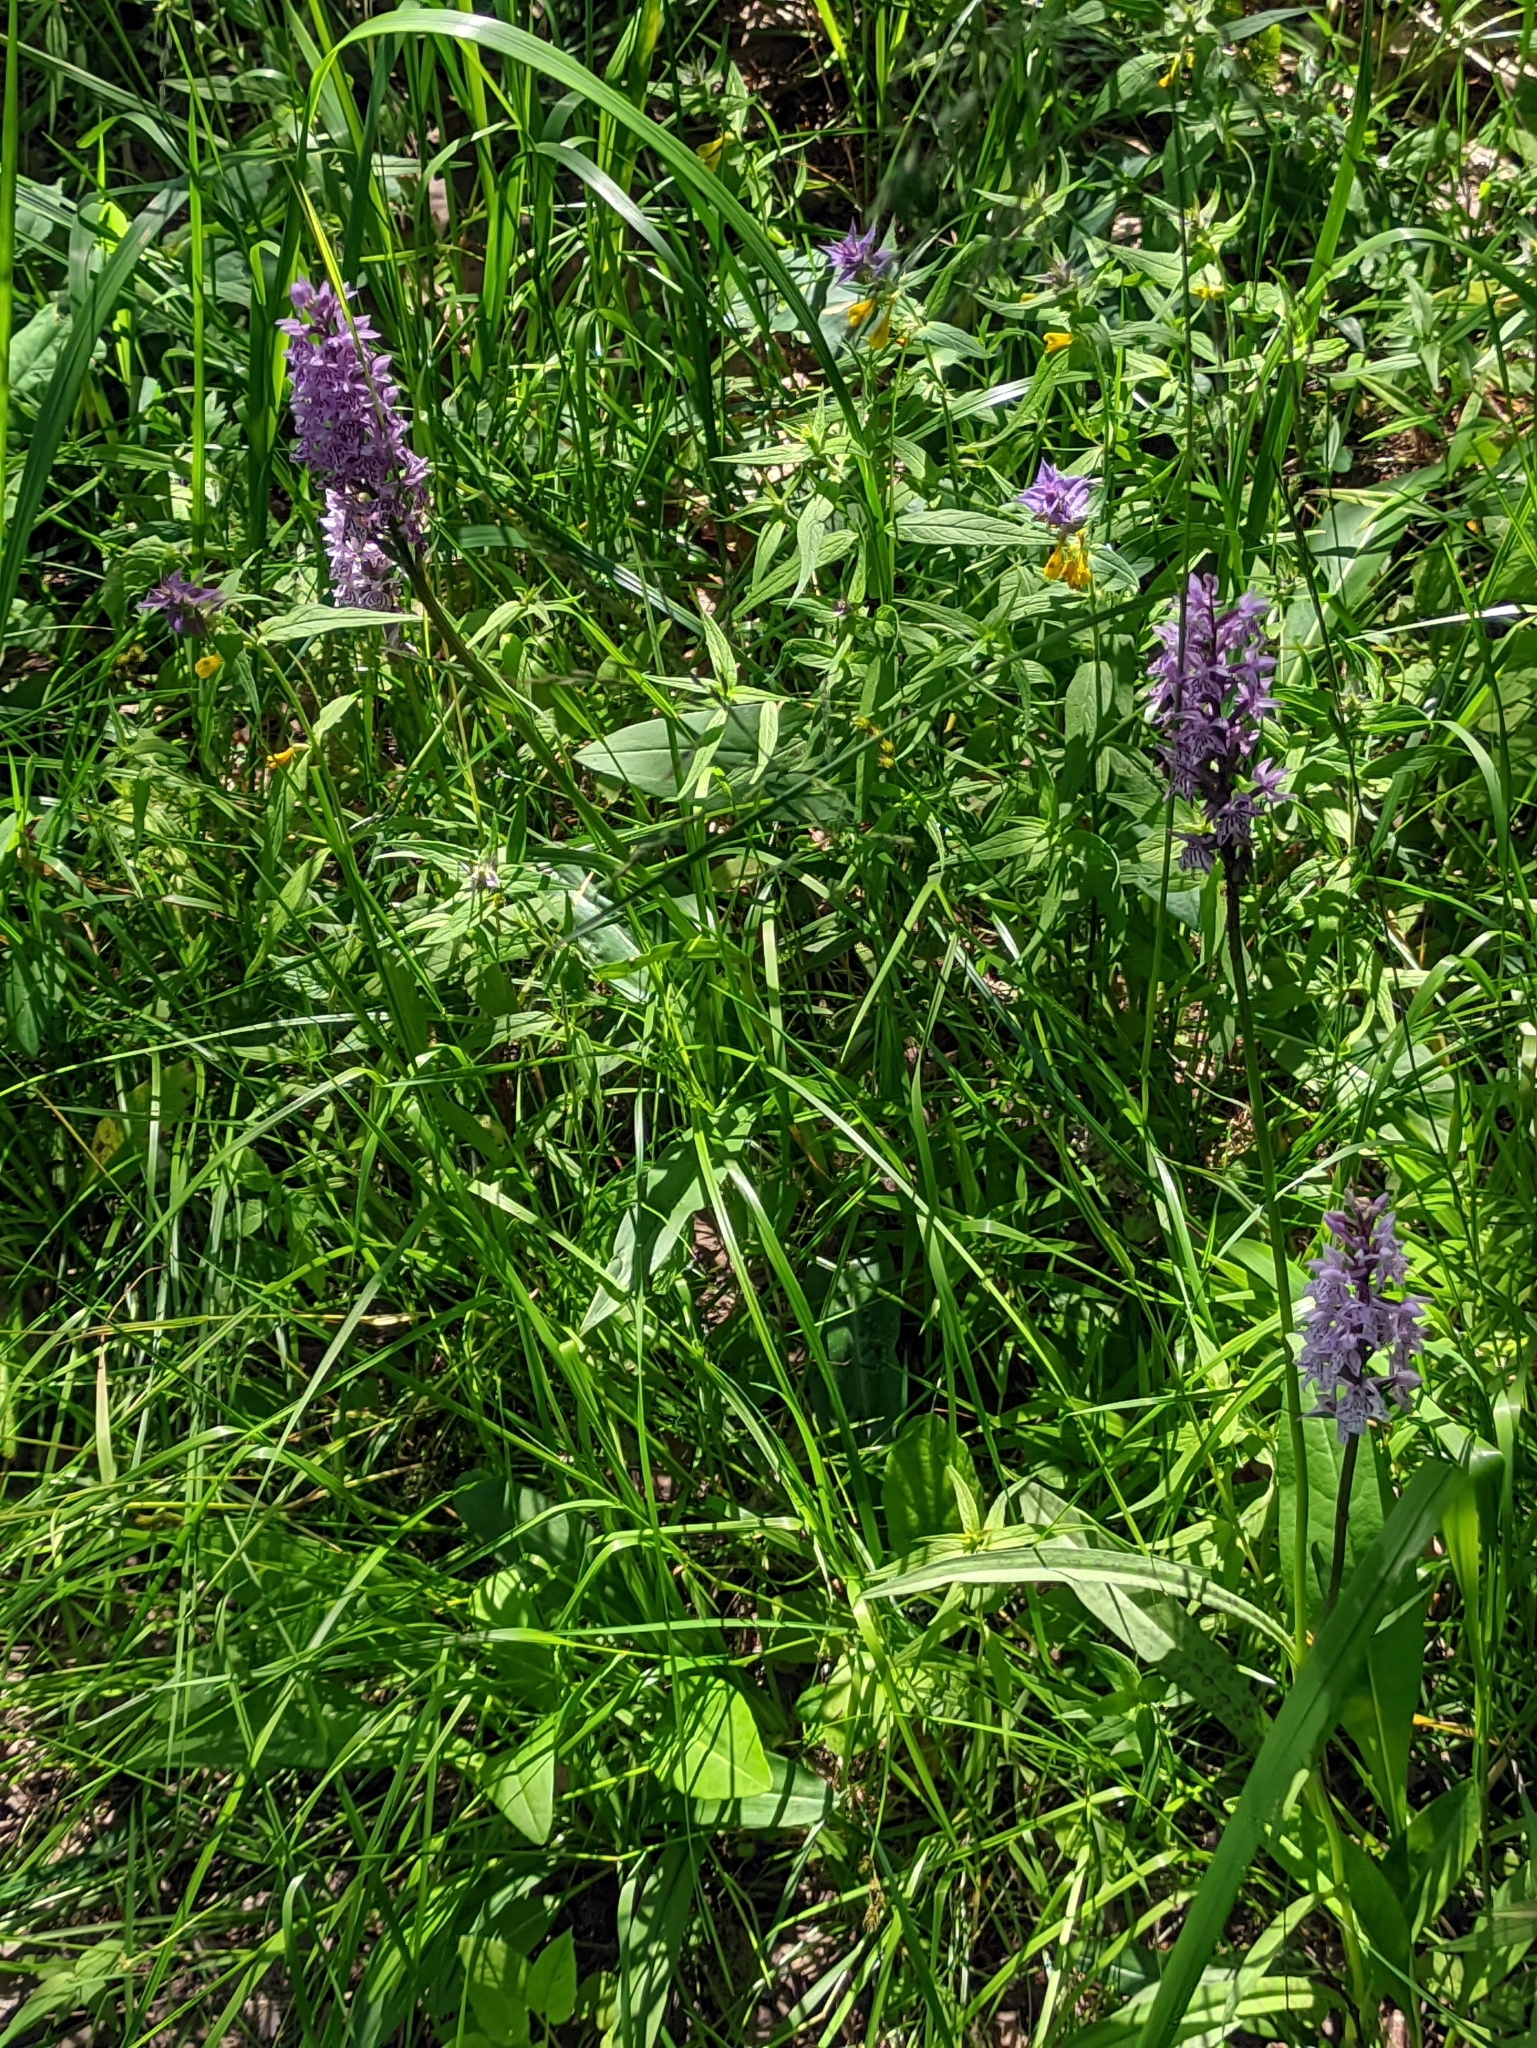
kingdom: Plantae
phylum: Tracheophyta
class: Liliopsida
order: Asparagales
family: Orchidaceae
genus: Dactylorhiza
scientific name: Dactylorhiza maculata
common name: Heath spotted-orchid
